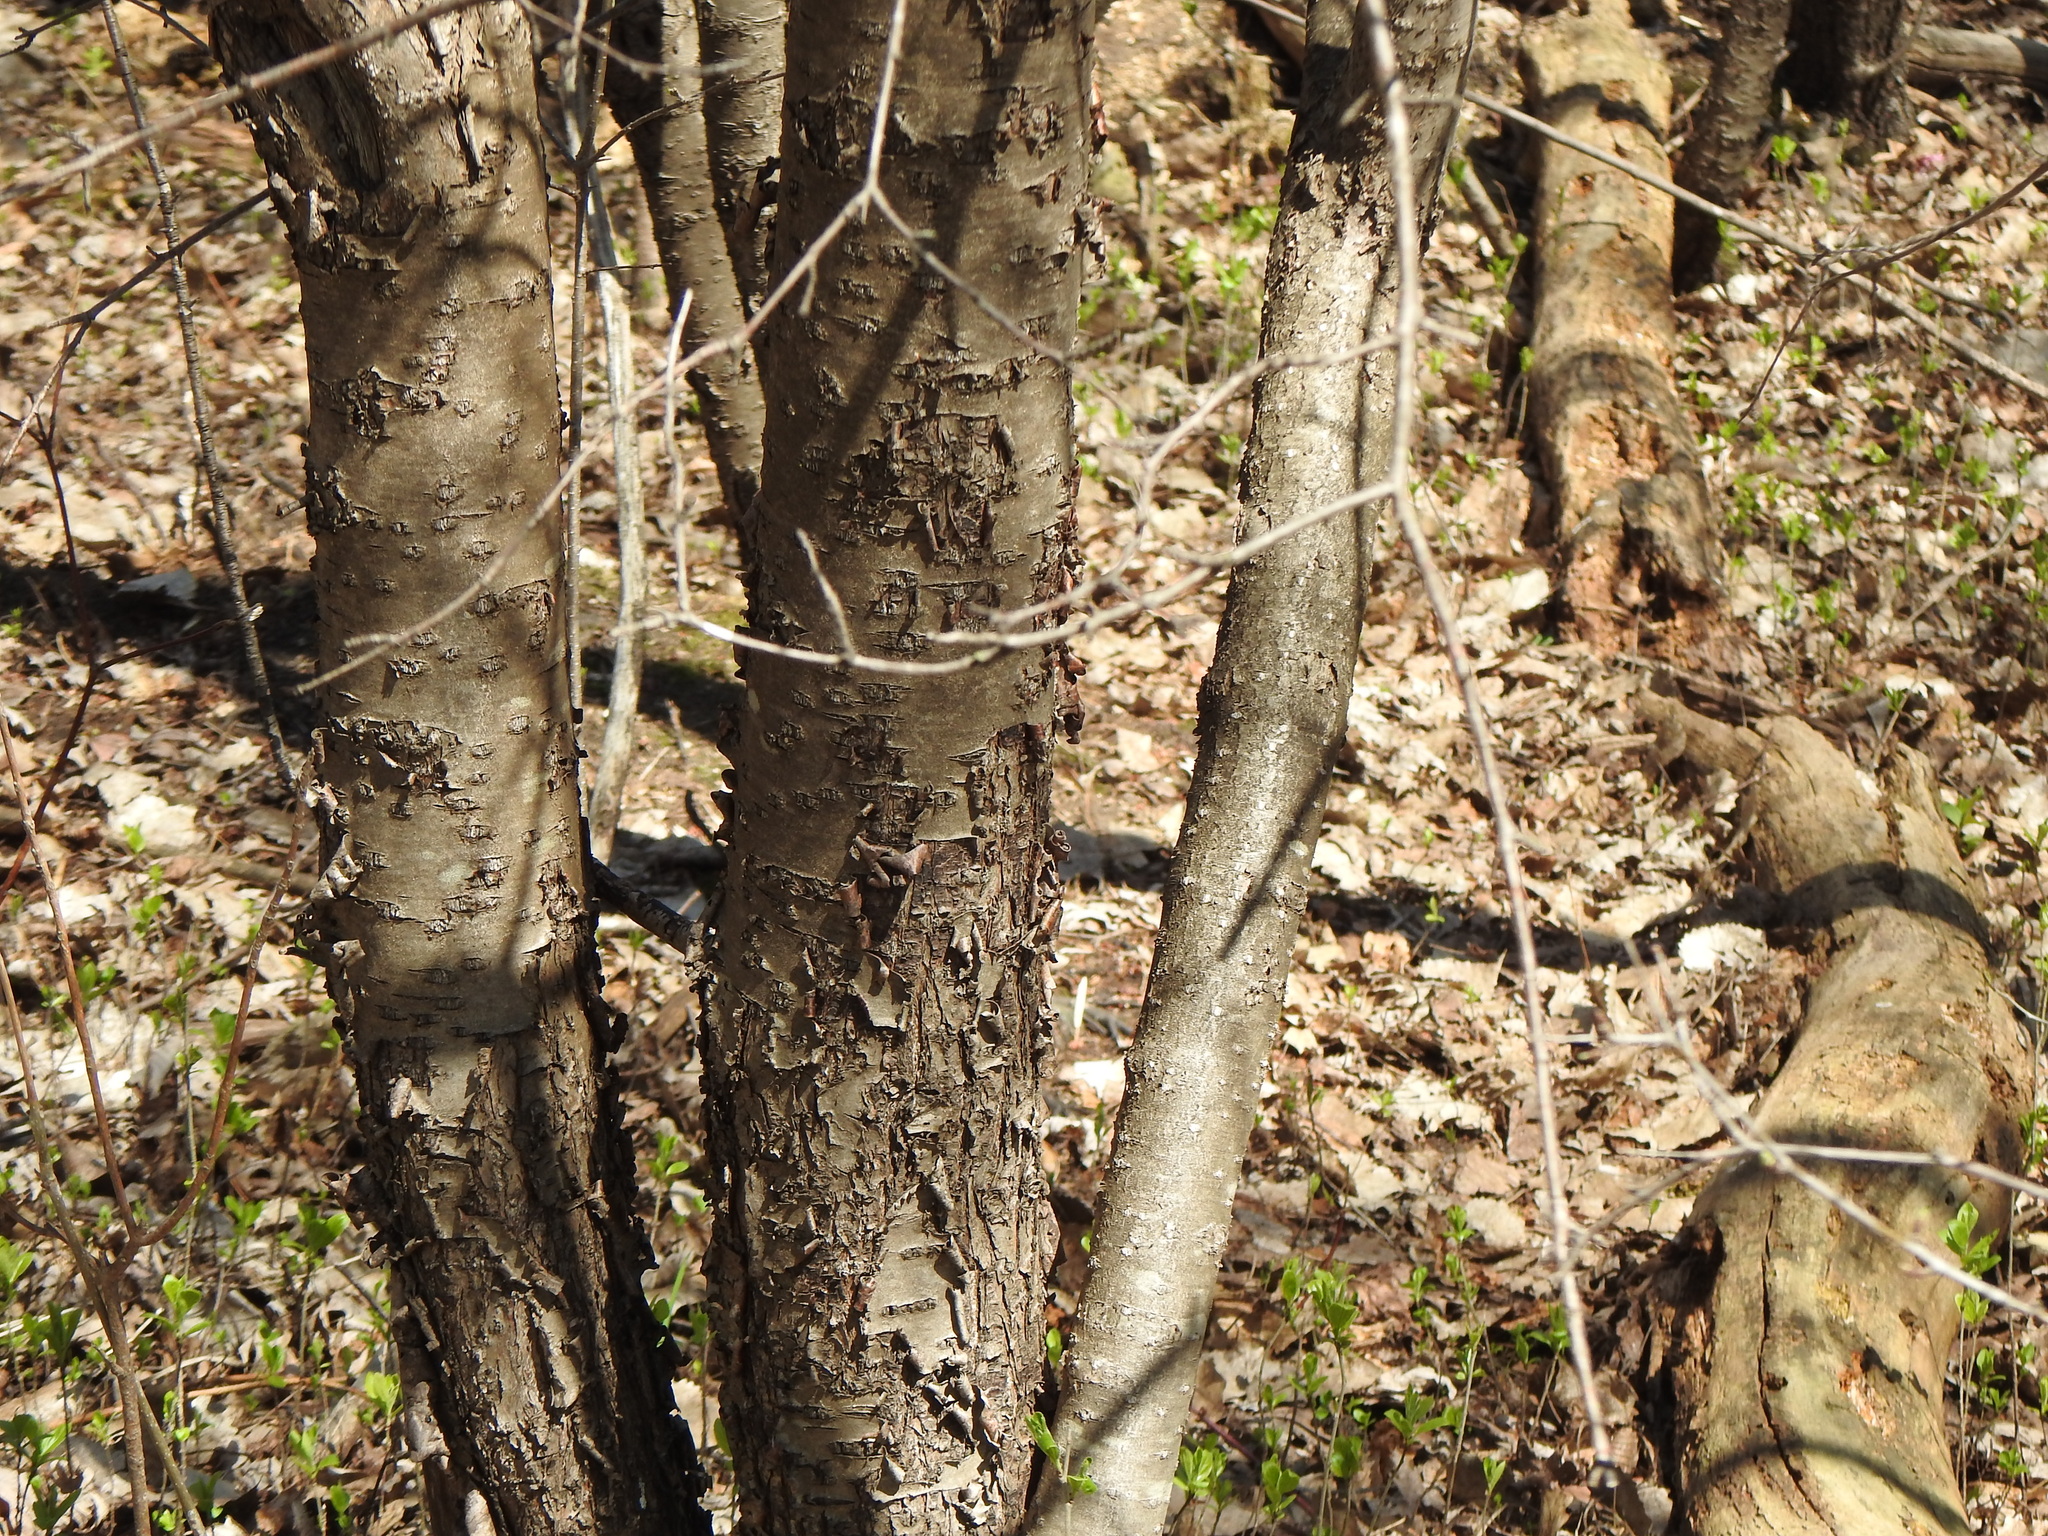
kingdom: Plantae
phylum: Tracheophyta
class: Magnoliopsida
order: Rosales
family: Rhamnaceae
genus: Rhamnus
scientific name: Rhamnus cathartica
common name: Common buckthorn
